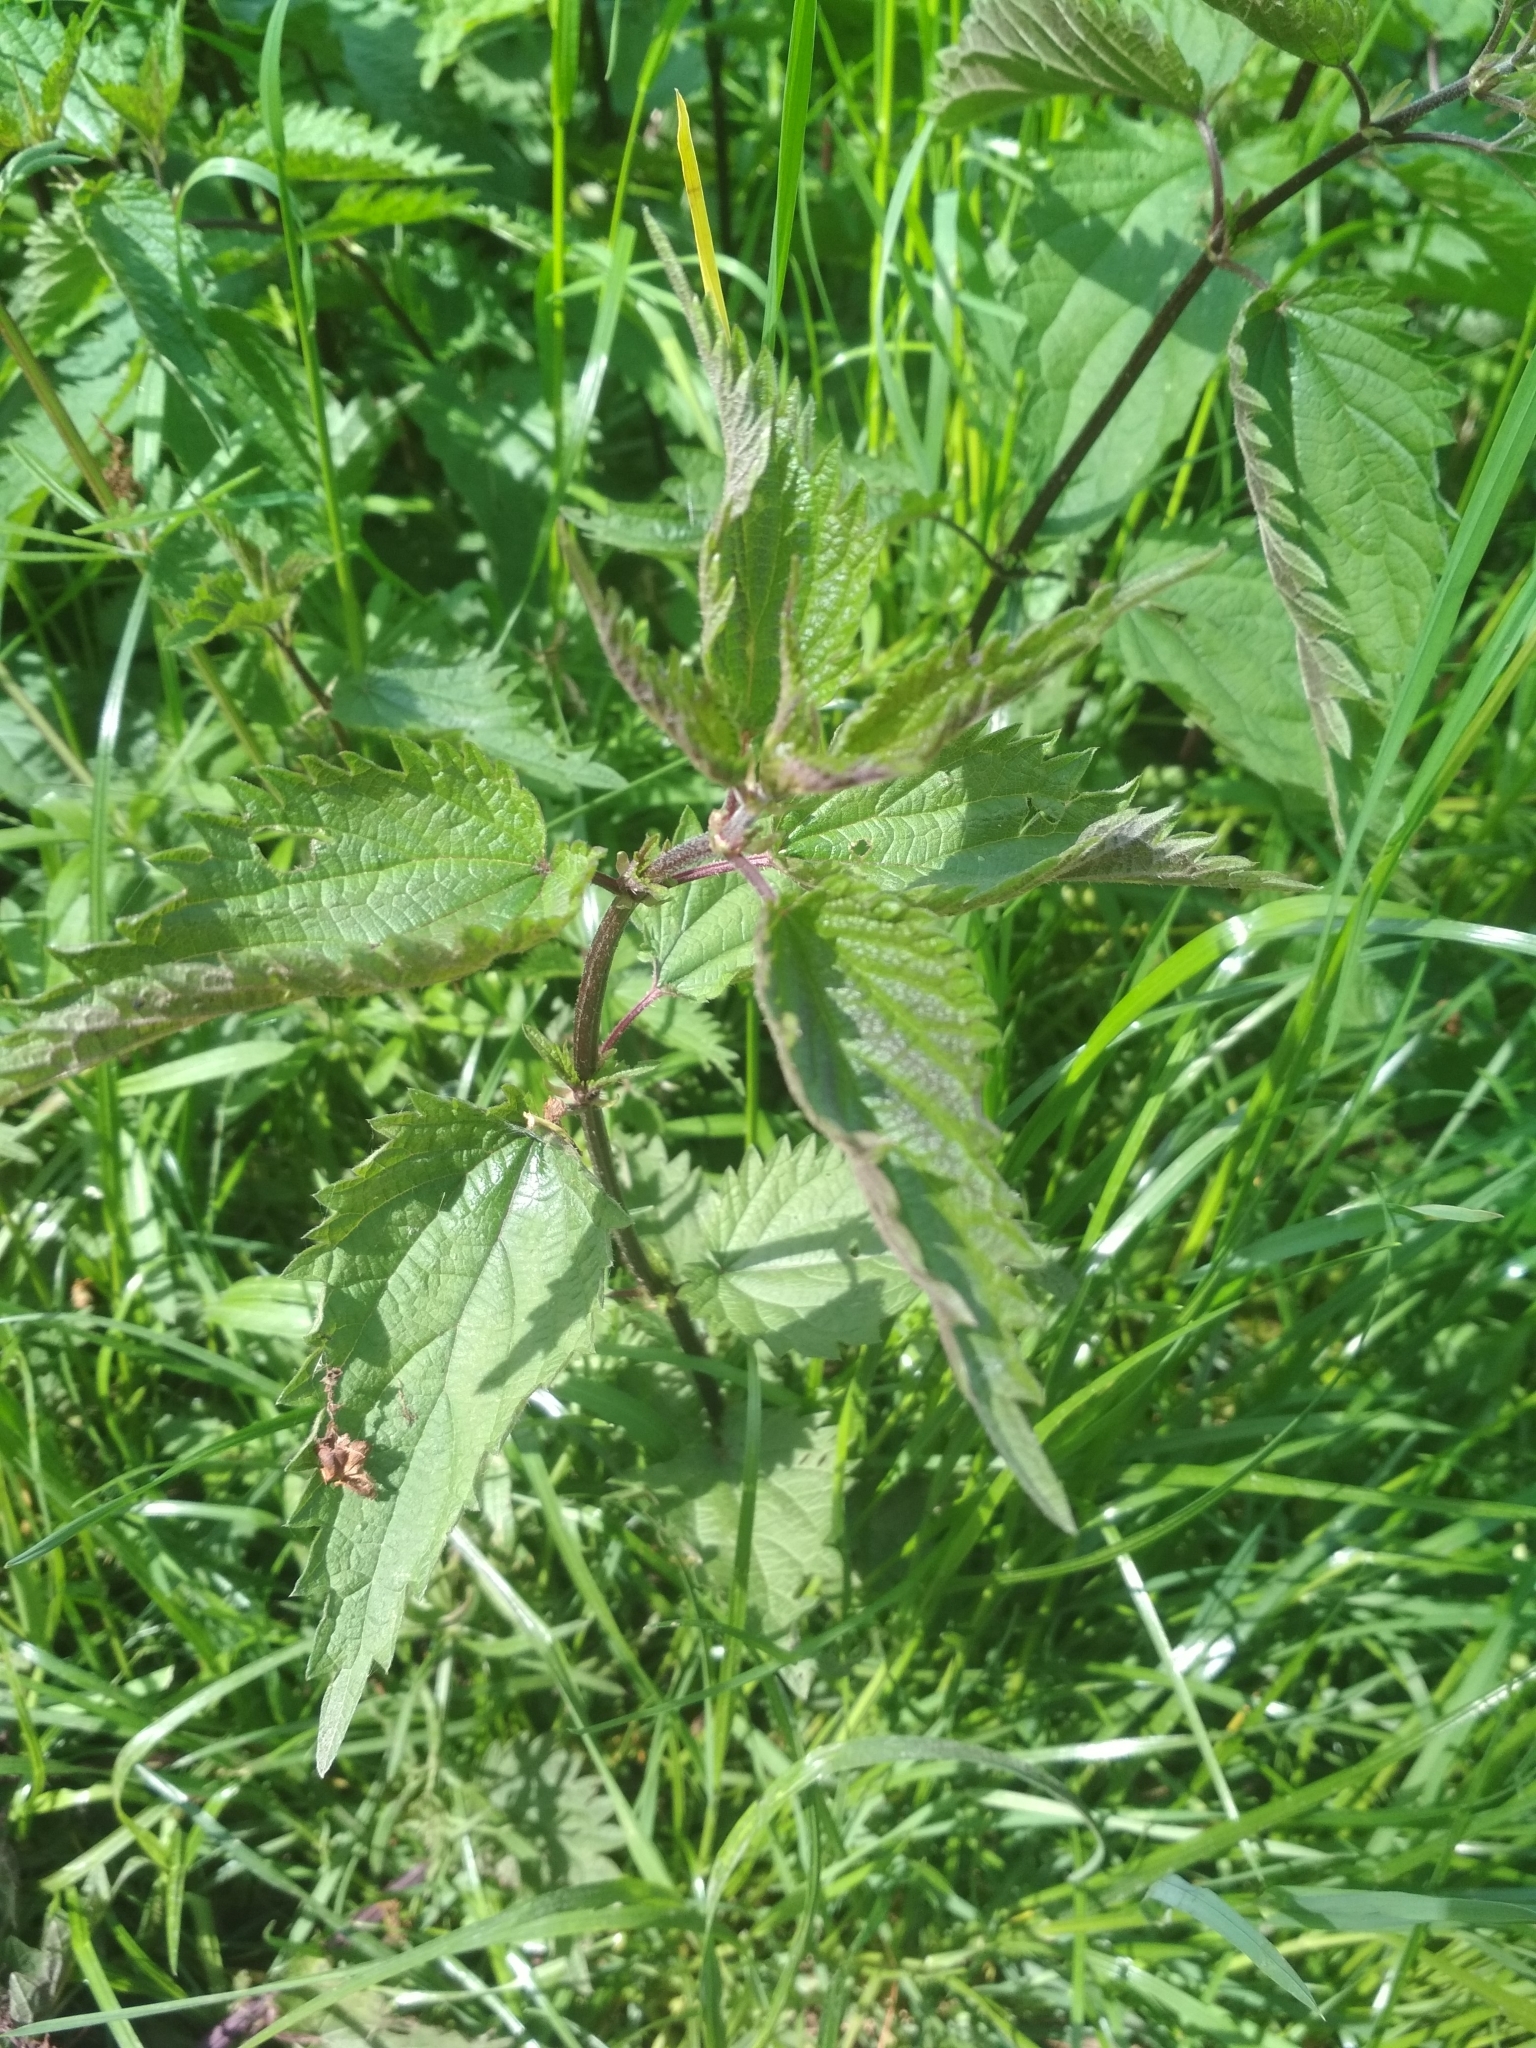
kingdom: Plantae
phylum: Tracheophyta
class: Magnoliopsida
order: Rosales
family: Urticaceae
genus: Urtica
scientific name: Urtica dioica
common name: Common nettle
